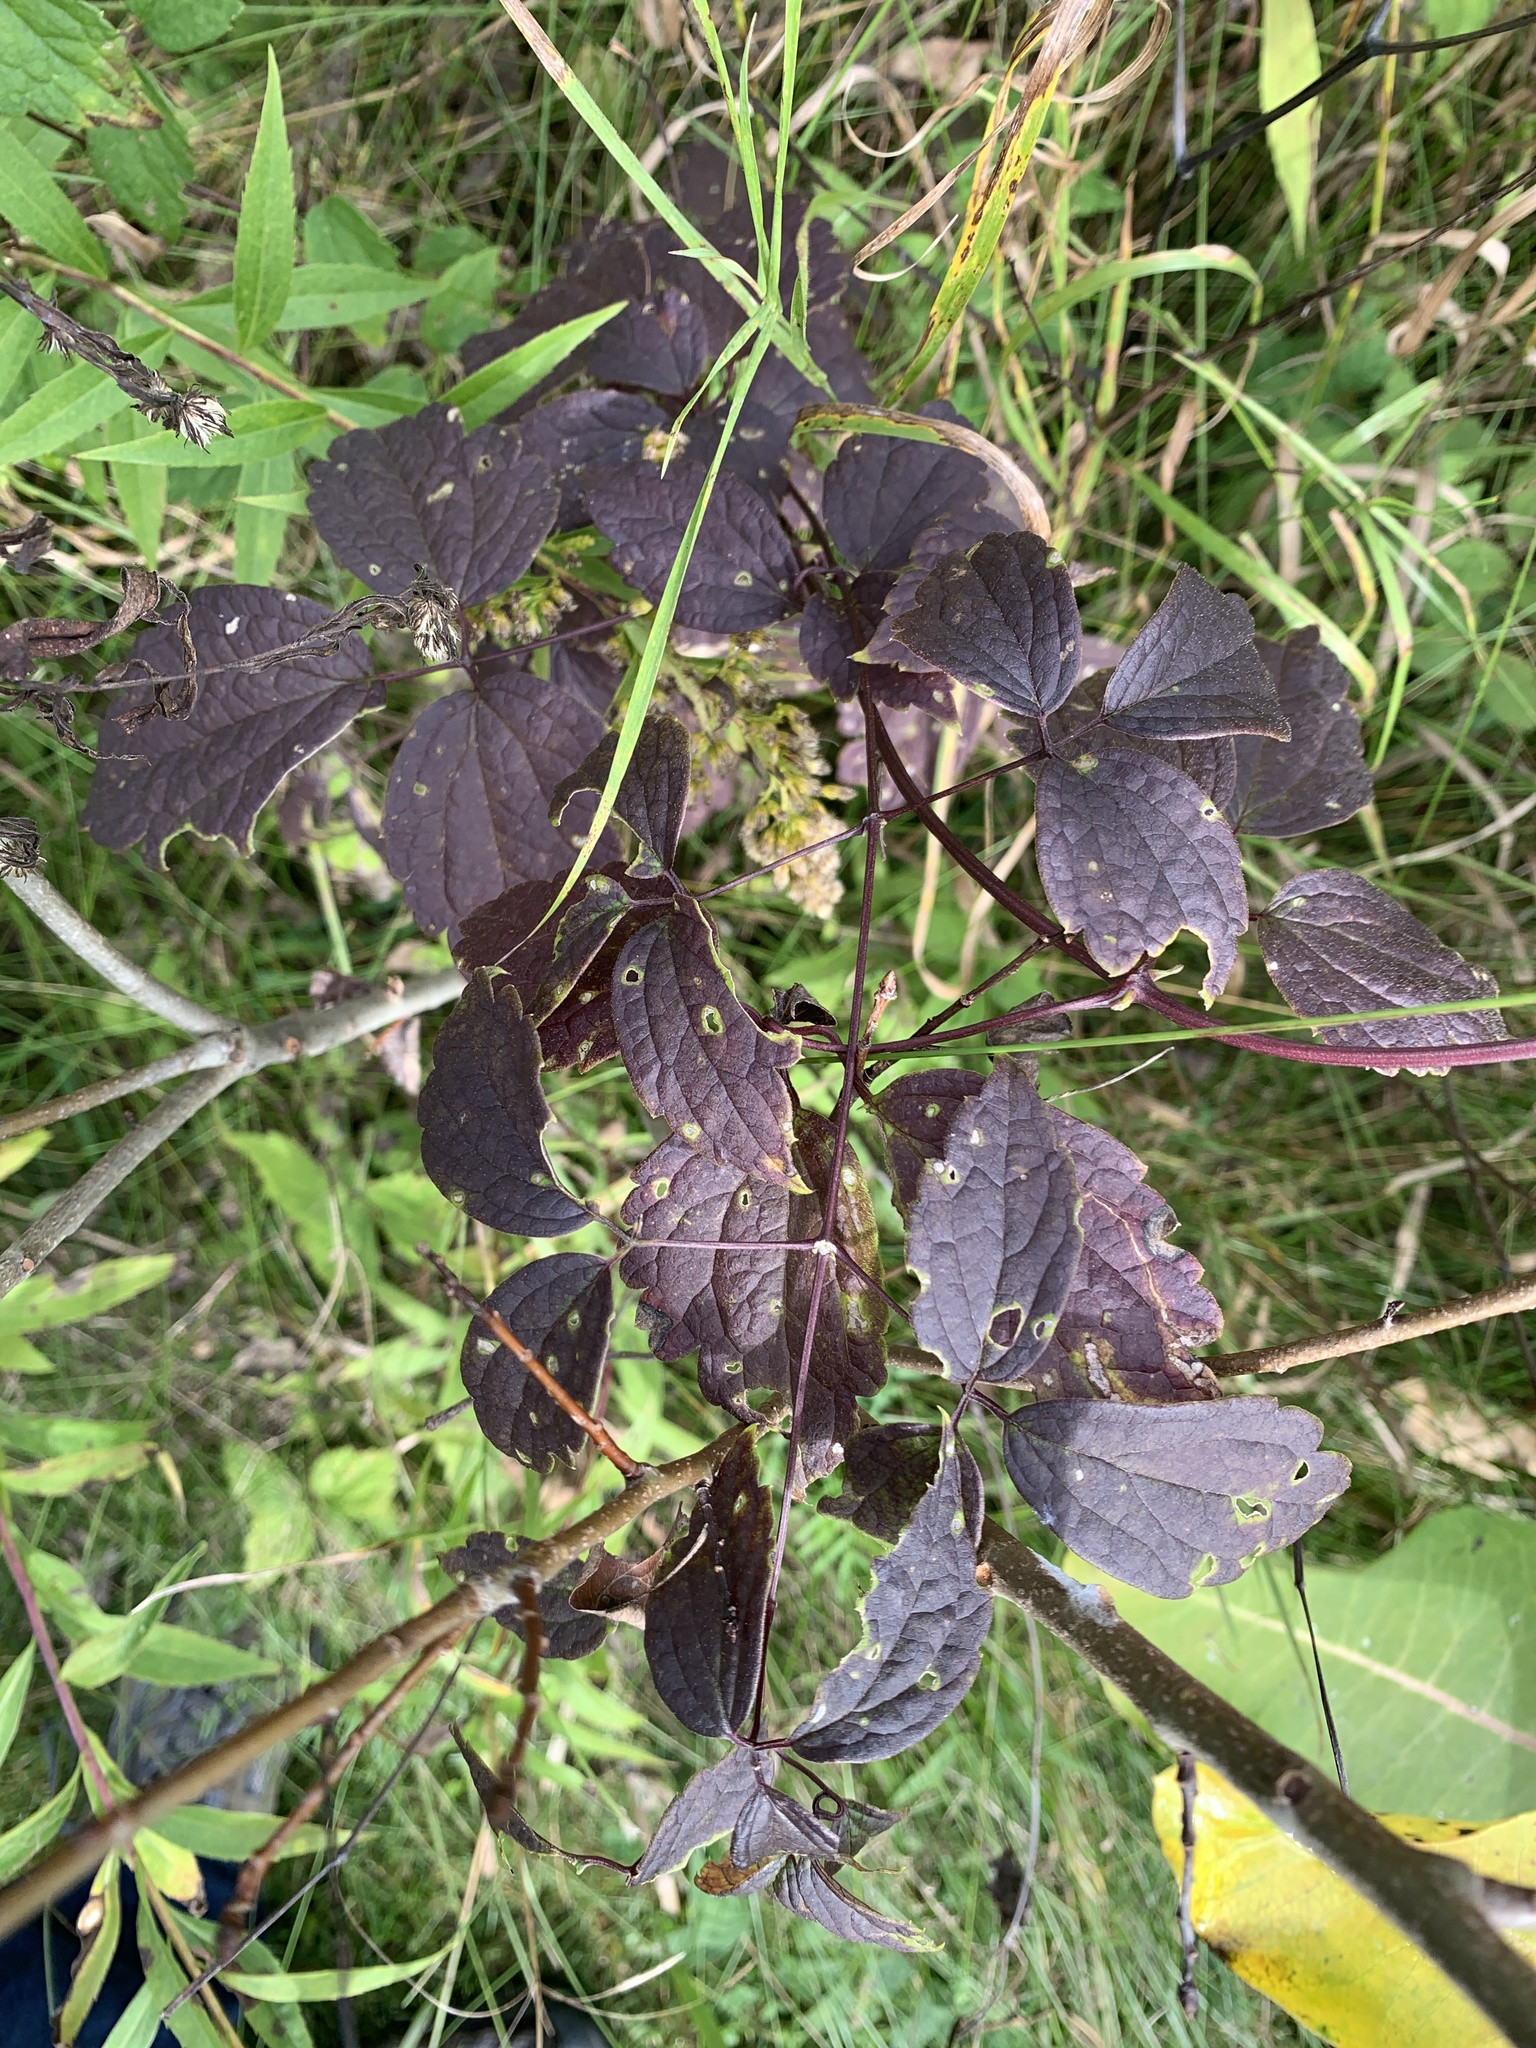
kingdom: Plantae
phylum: Tracheophyta
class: Magnoliopsida
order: Ranunculales
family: Ranunculaceae
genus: Clematis
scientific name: Clematis virginiana
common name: Virgin's-bower
